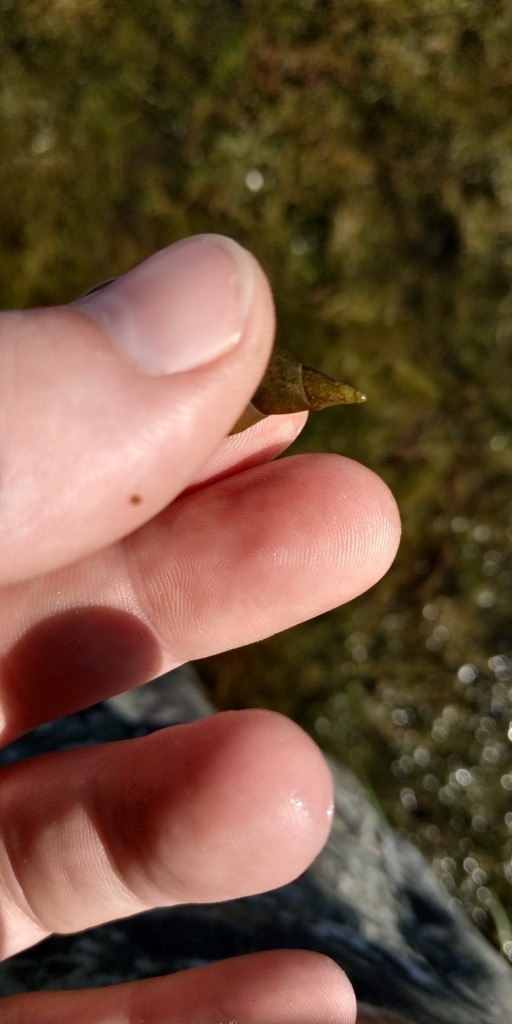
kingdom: Animalia
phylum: Mollusca
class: Gastropoda
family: Lymnaeidae
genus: Lymnaea
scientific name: Lymnaea stagnalis
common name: Great pond snail
